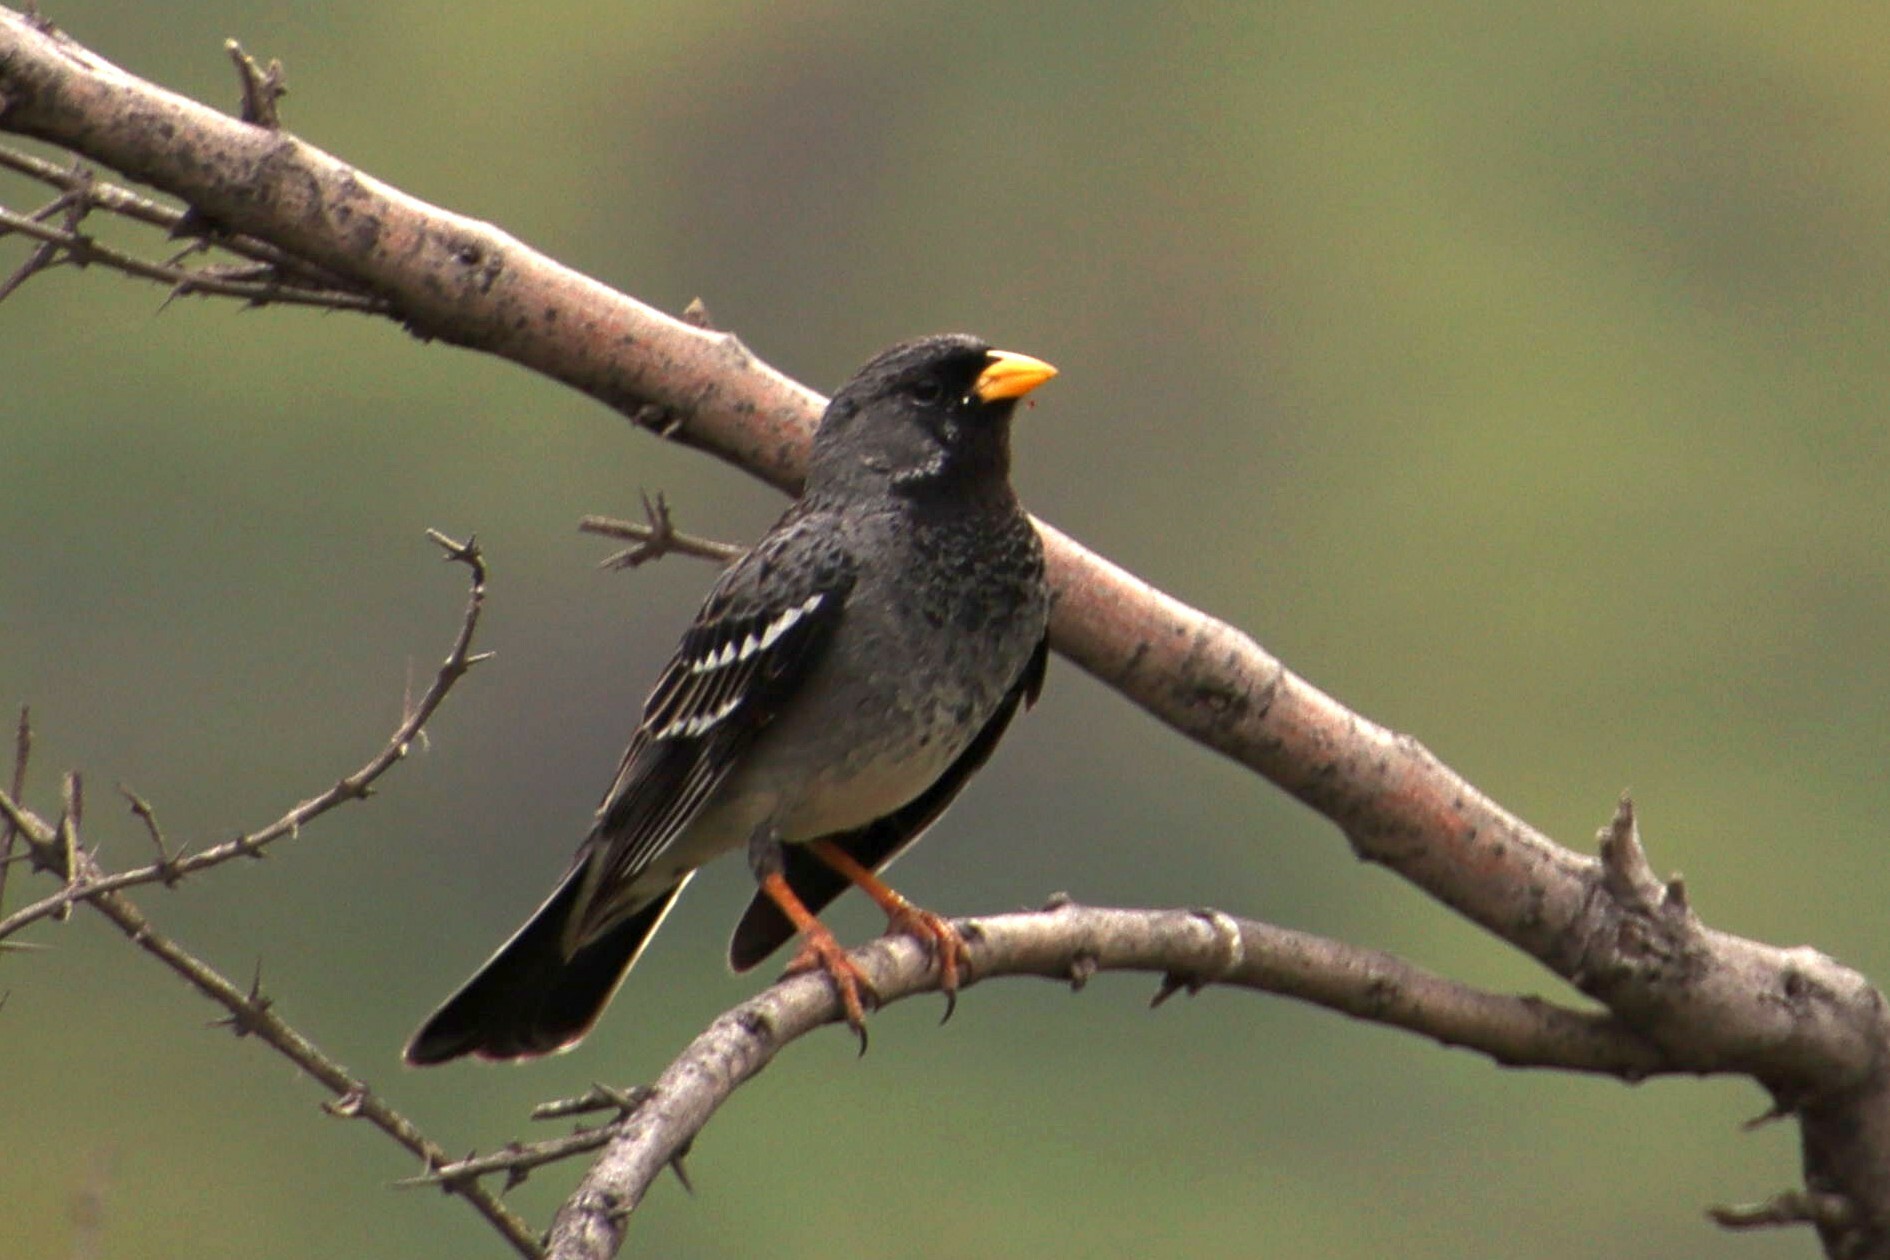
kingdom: Animalia
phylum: Chordata
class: Aves
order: Passeriformes
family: Thraupidae
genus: Rhopospina
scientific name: Rhopospina fruticeti
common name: Mourning sierra finch
